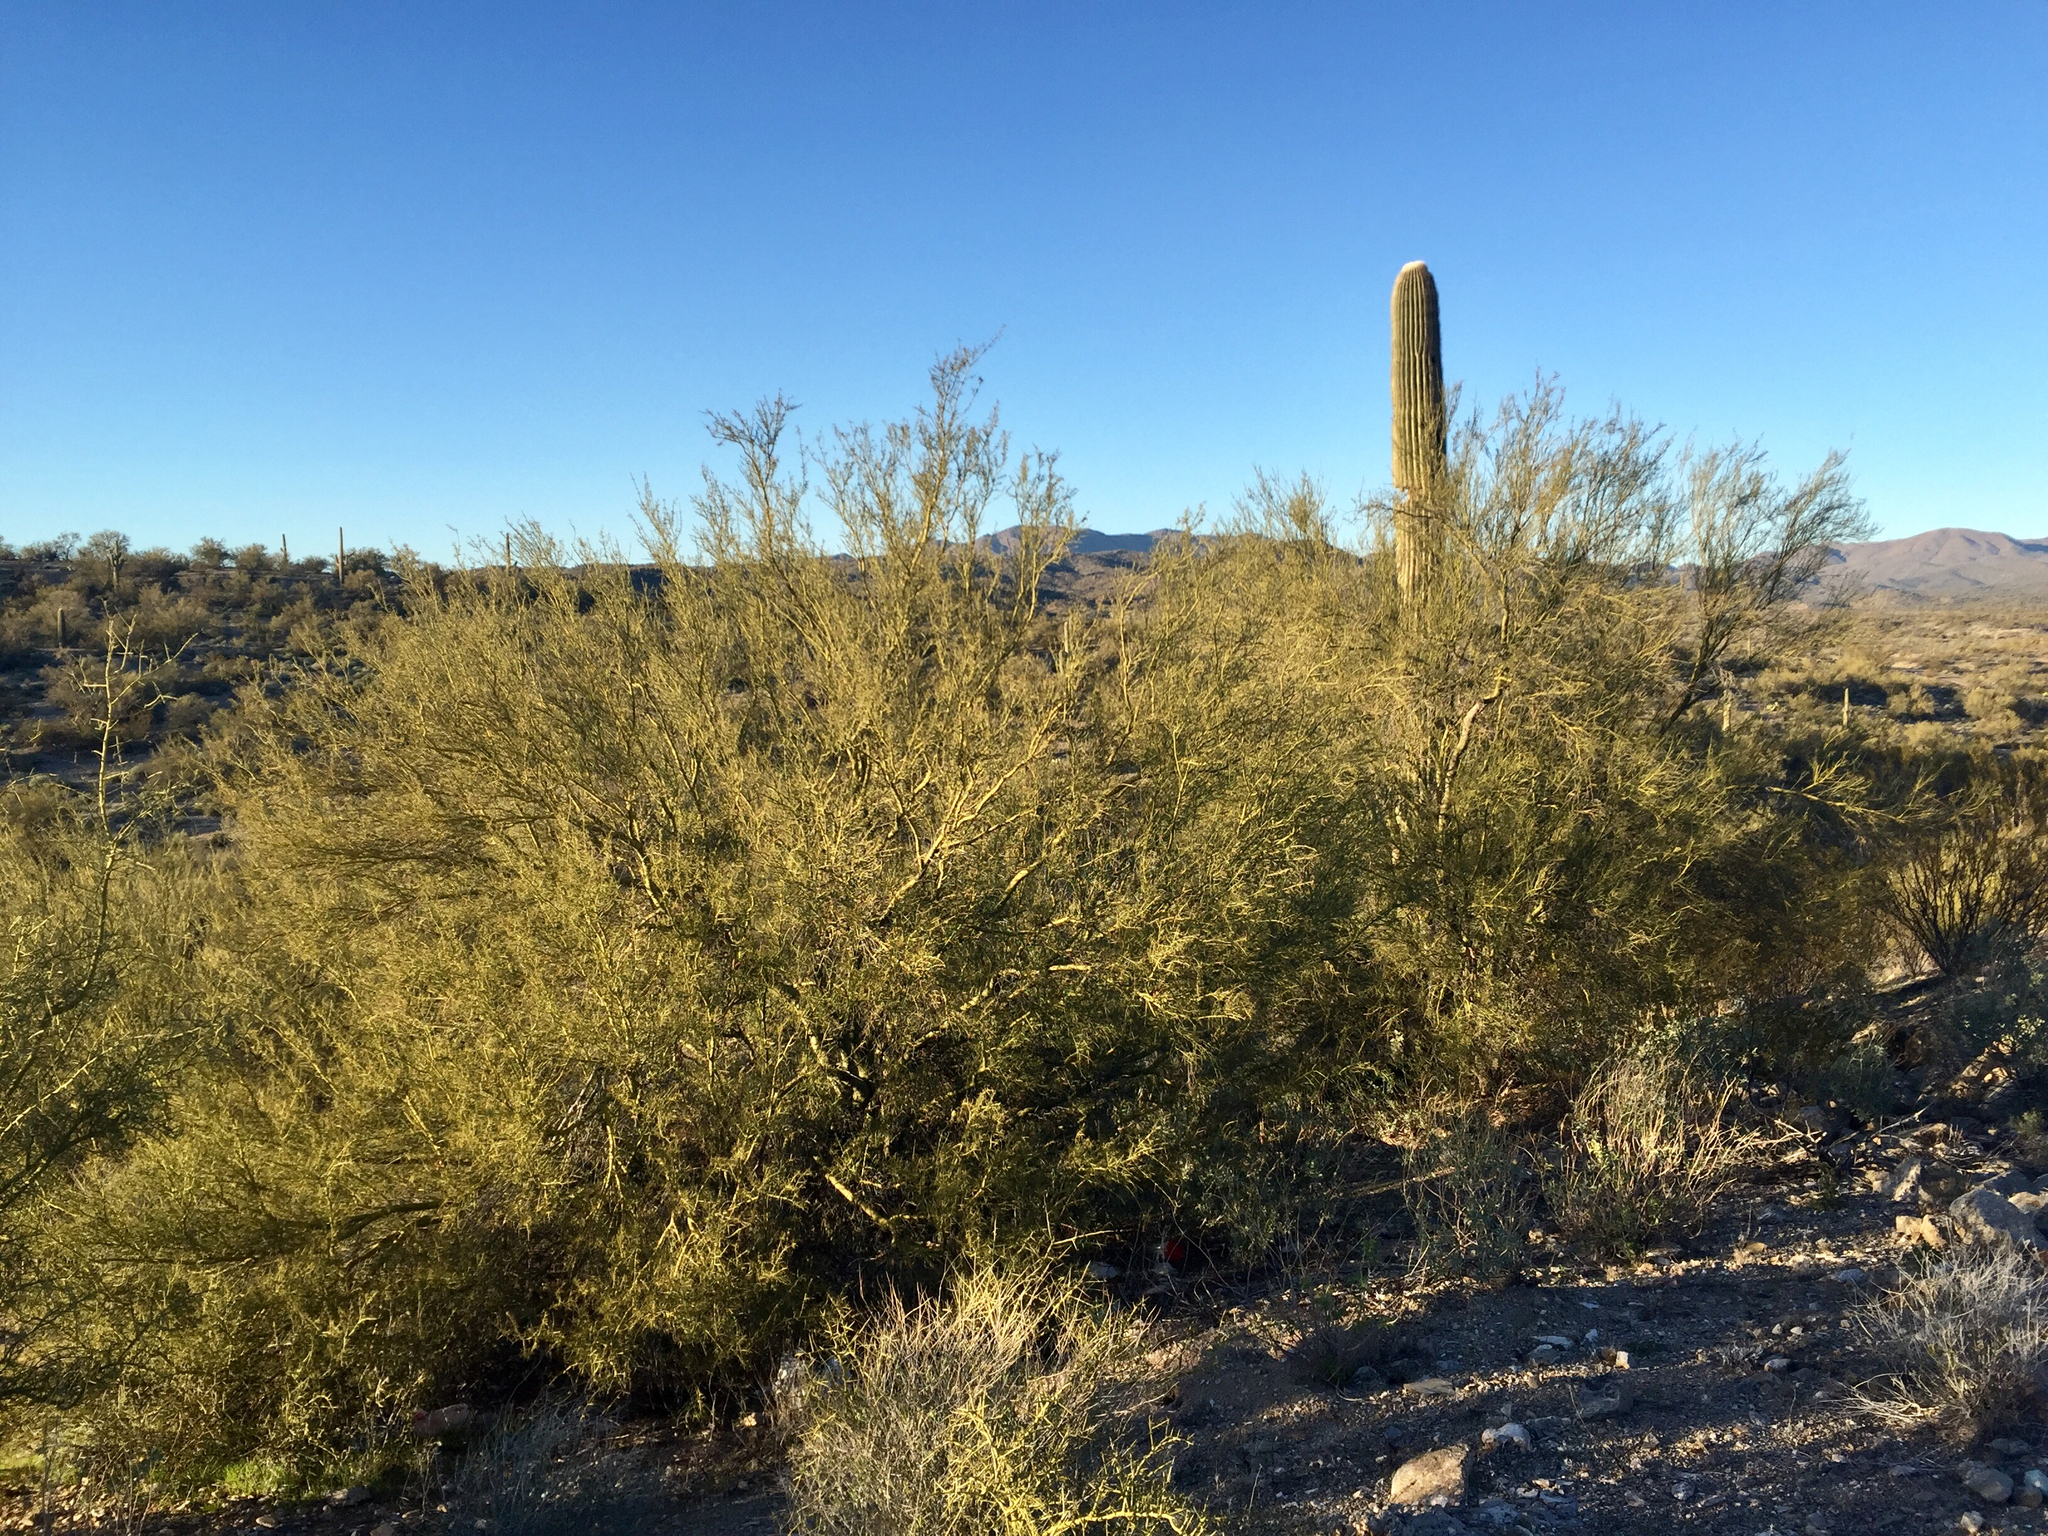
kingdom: Plantae
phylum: Tracheophyta
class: Magnoliopsida
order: Fabales
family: Fabaceae
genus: Parkinsonia
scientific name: Parkinsonia microphylla
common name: Yellow paloverde
